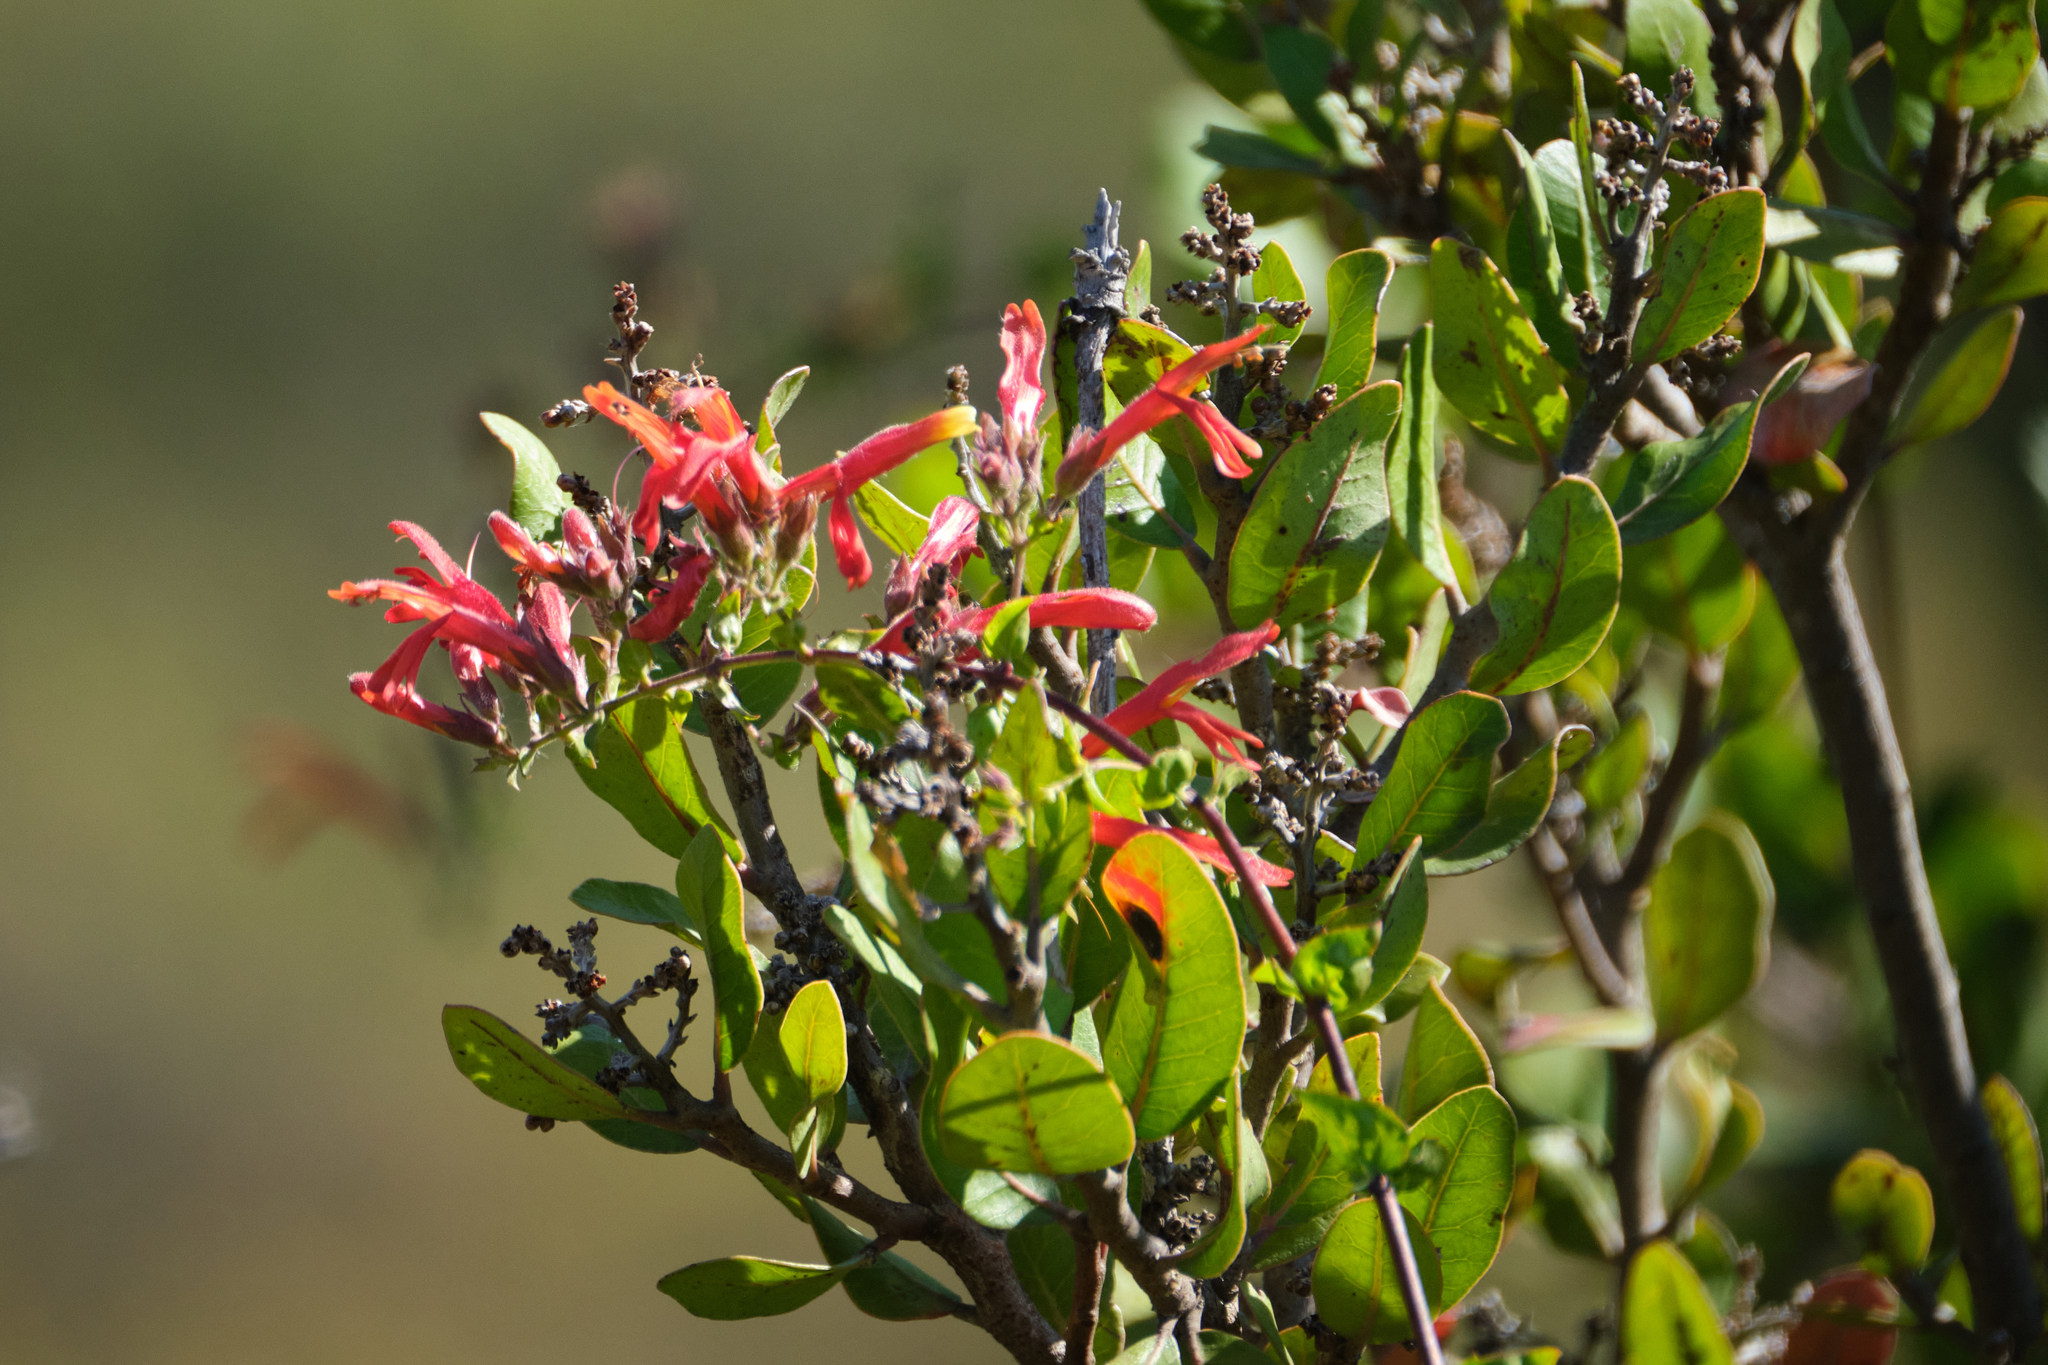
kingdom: Plantae
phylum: Tracheophyta
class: Magnoliopsida
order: Lamiales
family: Plantaginaceae
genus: Keckiella
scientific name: Keckiella cordifolia
